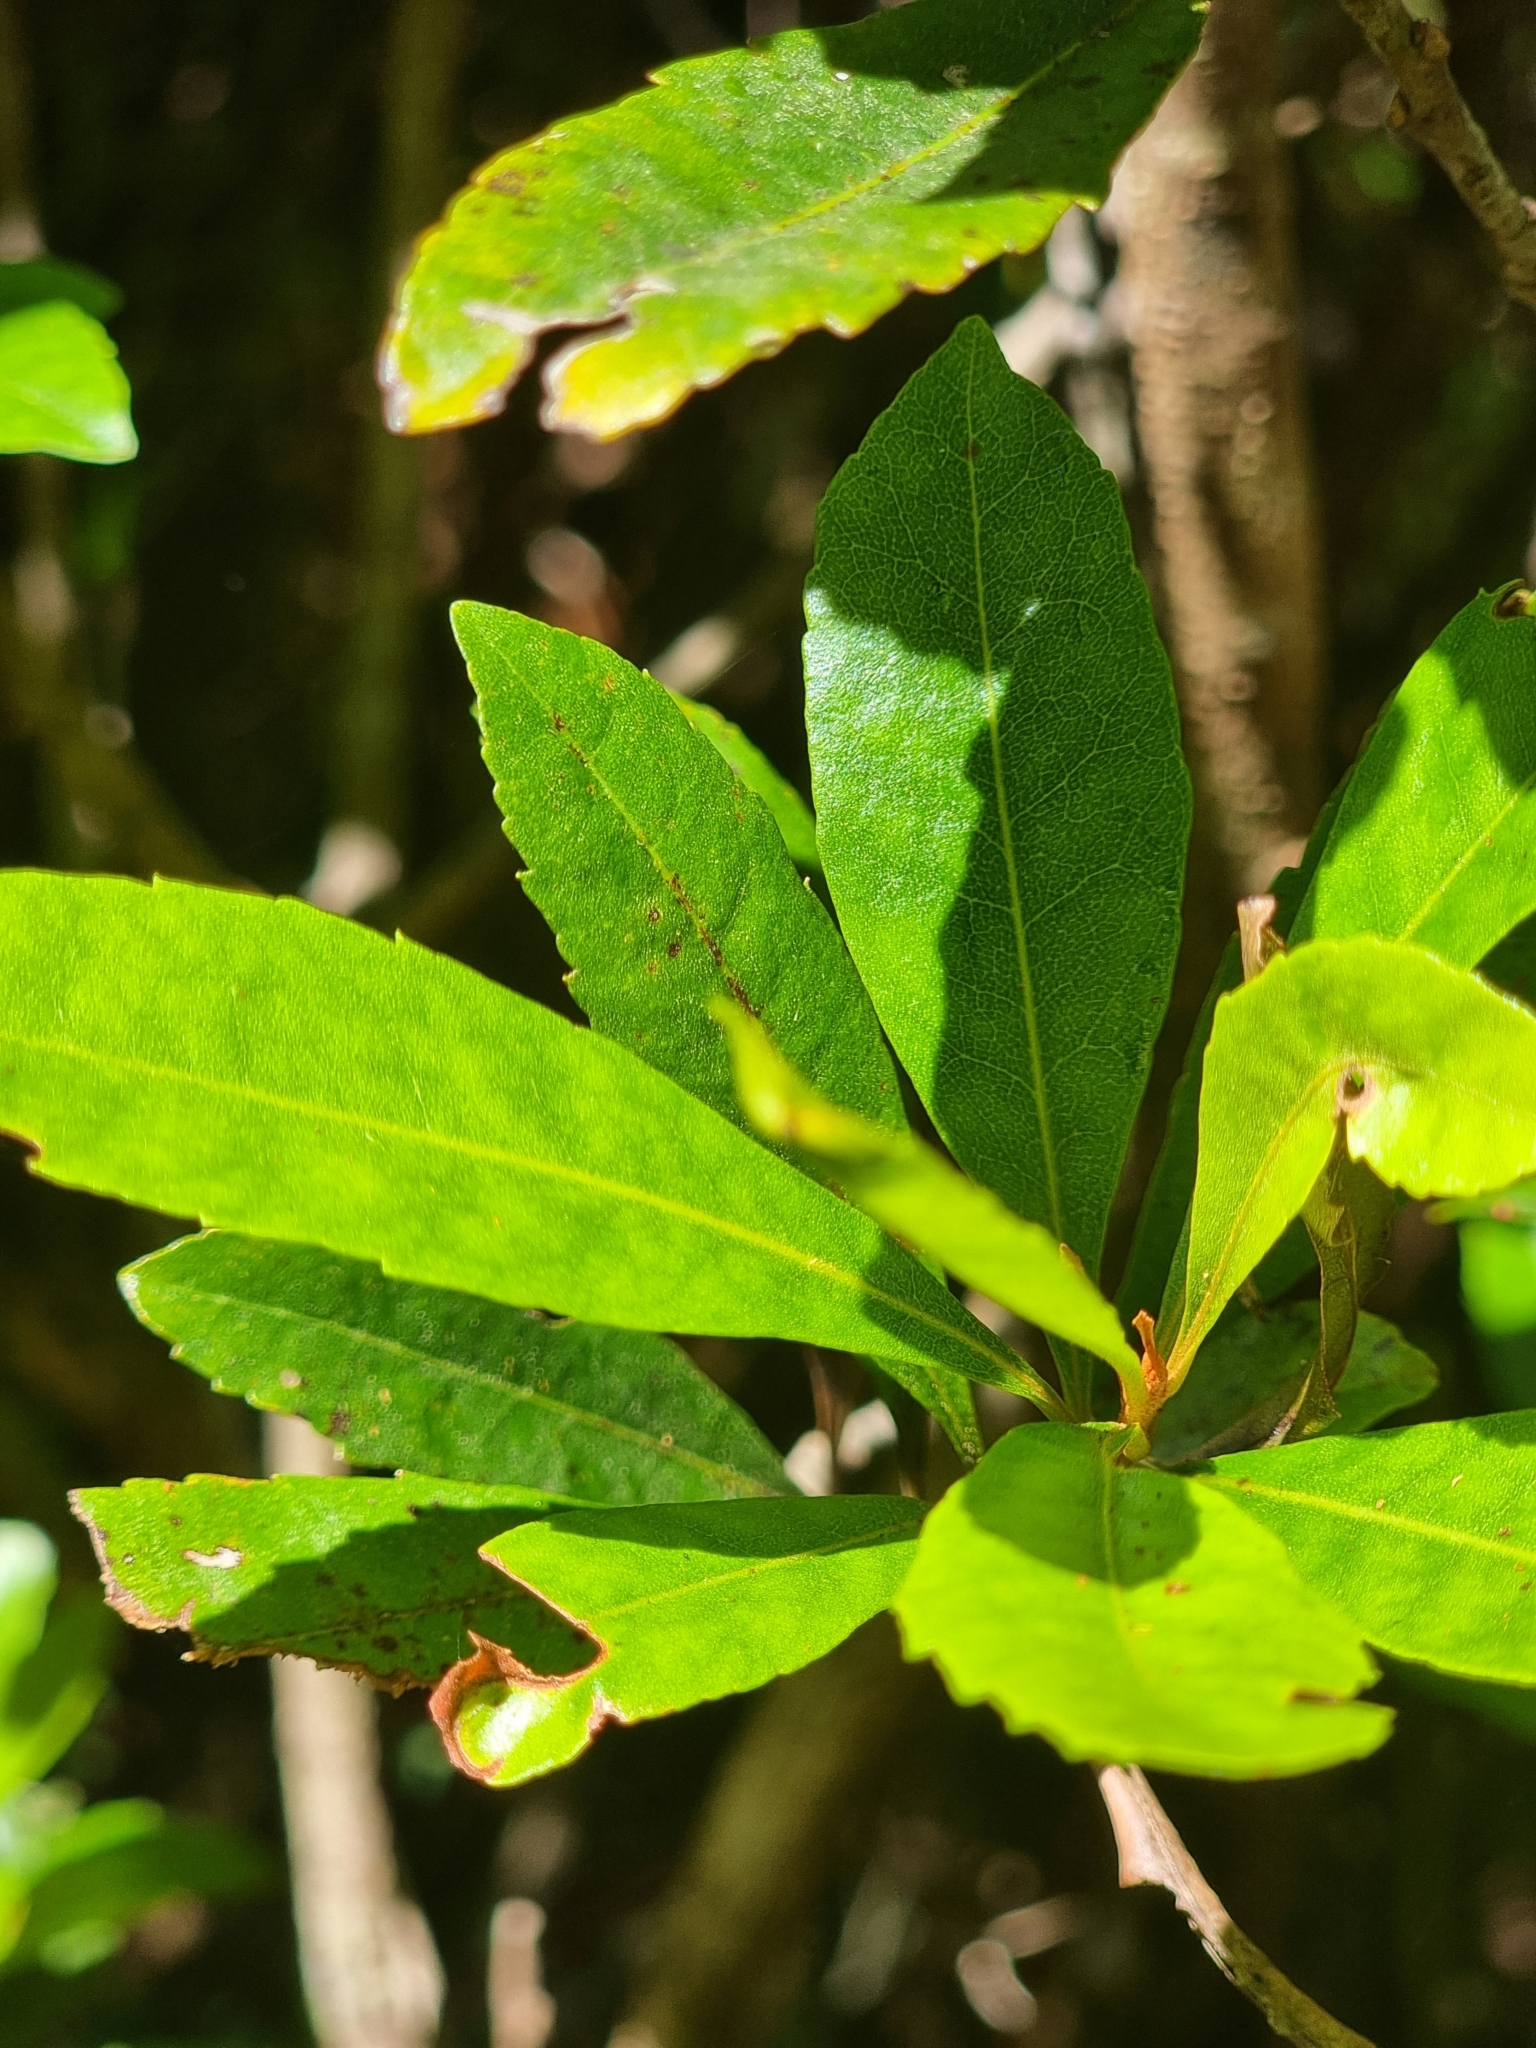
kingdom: Plantae
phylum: Tracheophyta
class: Magnoliopsida
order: Fagales
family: Myricaceae
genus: Morella
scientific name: Morella faya
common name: Firetree
